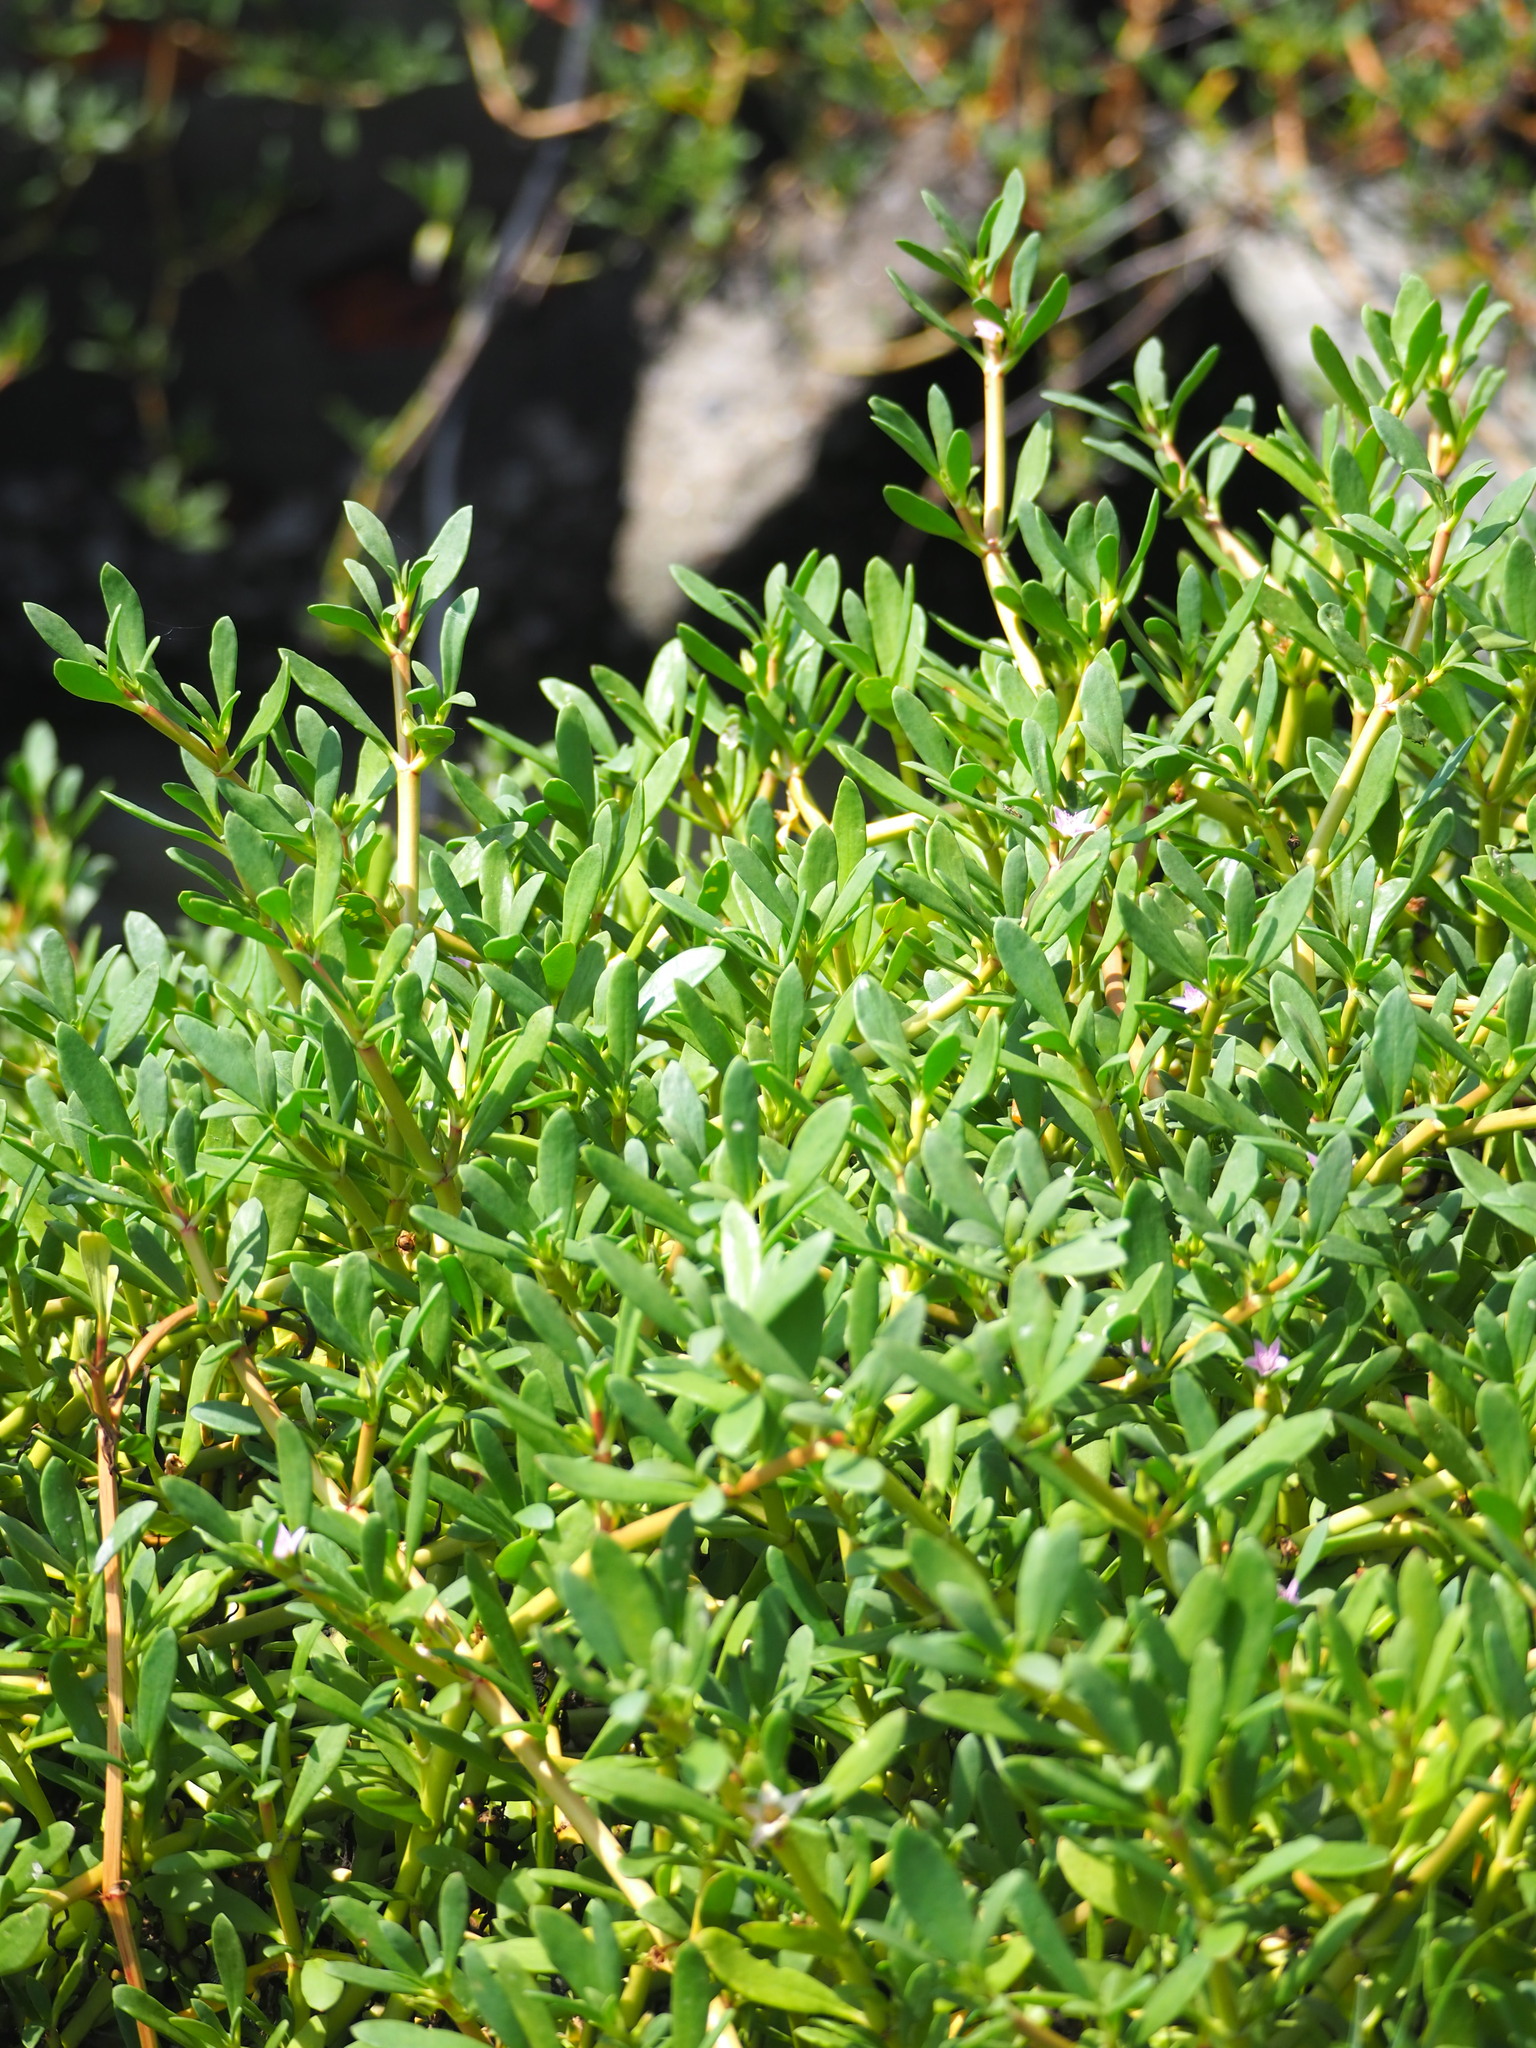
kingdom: Plantae
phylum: Tracheophyta
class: Magnoliopsida
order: Caryophyllales
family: Aizoaceae
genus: Sesuvium
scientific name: Sesuvium portulacastrum
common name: Sea-purslane
